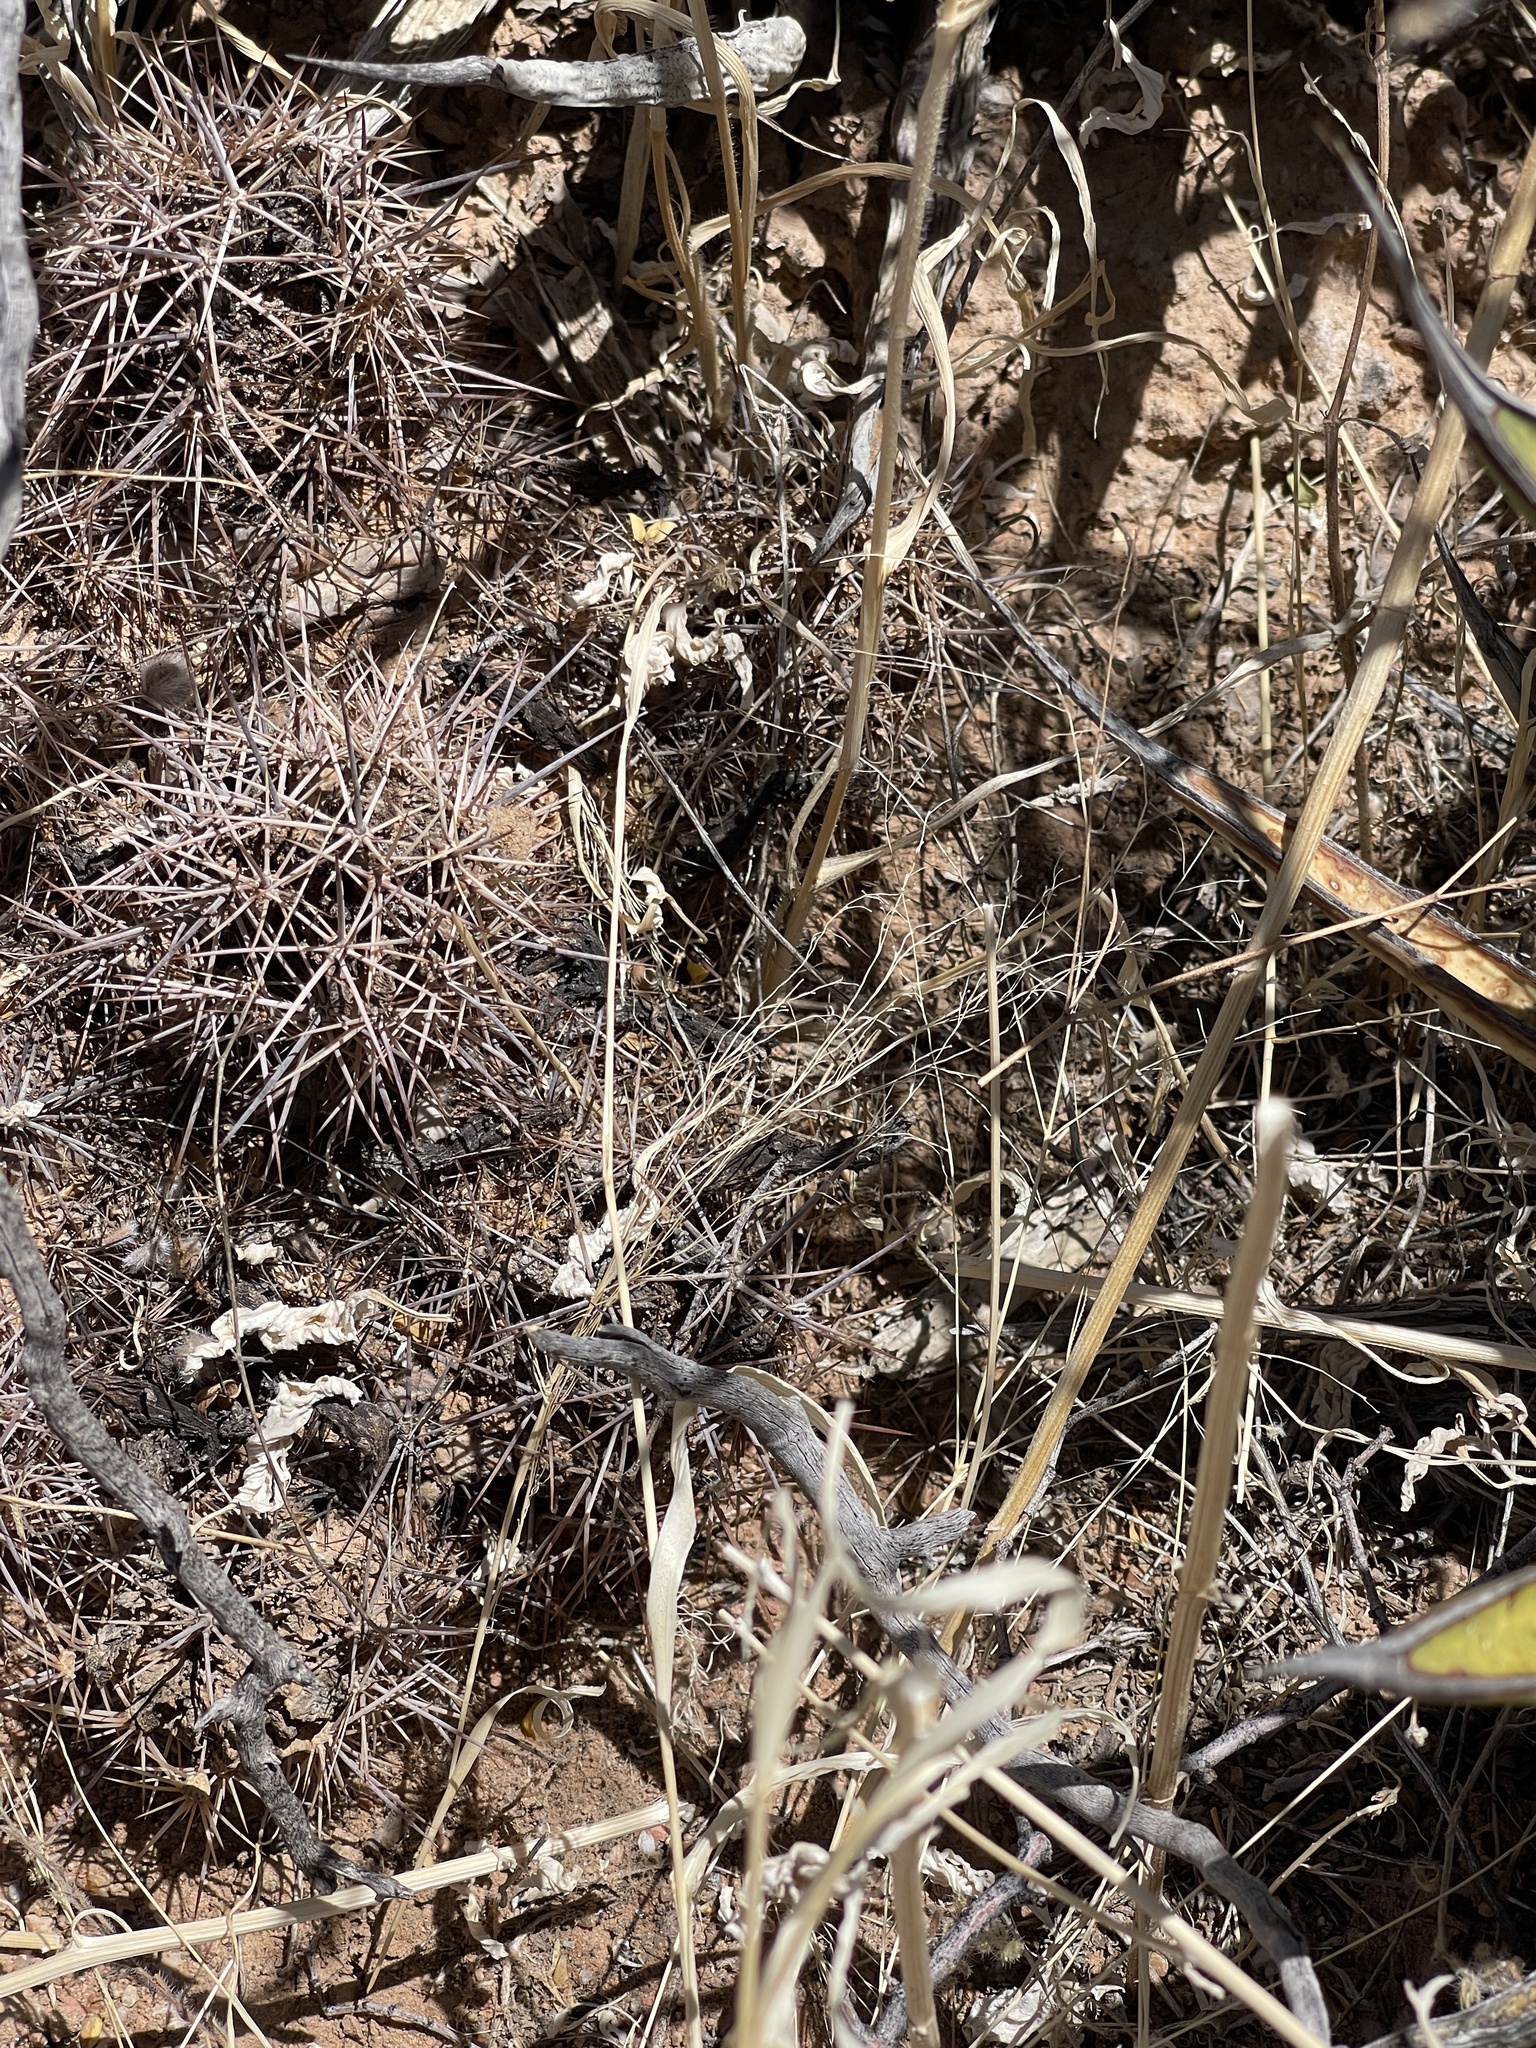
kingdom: Plantae
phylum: Tracheophyta
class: Magnoliopsida
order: Caryophyllales
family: Cactaceae
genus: Echinocereus
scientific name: Echinocereus coccineus
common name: Scarlet hedgehog cactus
